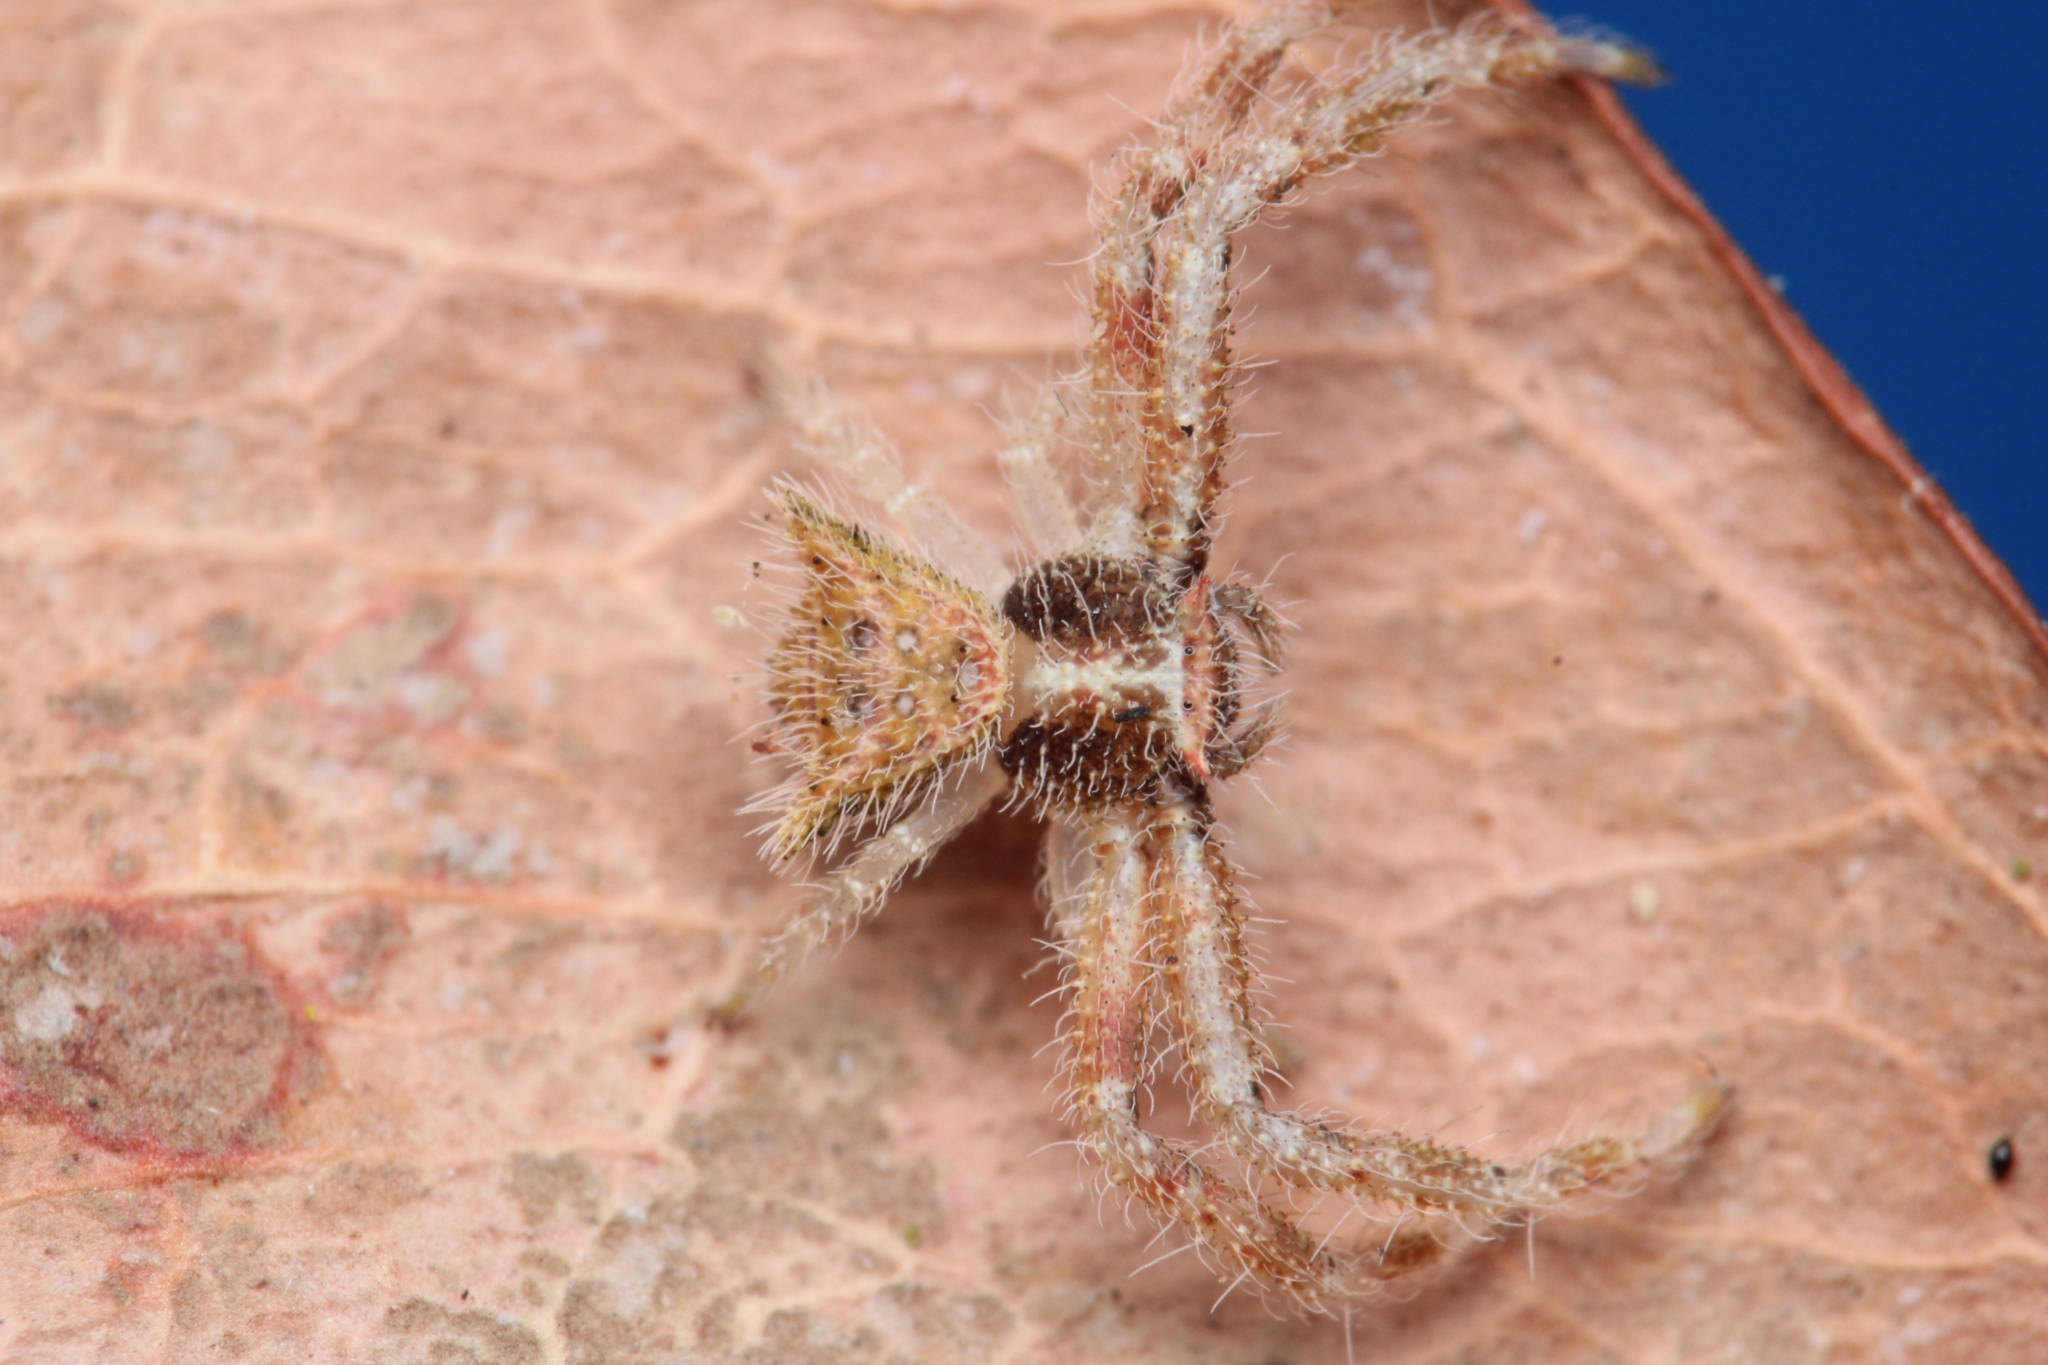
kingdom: Animalia
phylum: Arthropoda
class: Arachnida
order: Araneae
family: Thomisidae
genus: Thomisus
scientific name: Thomisus granulatus
